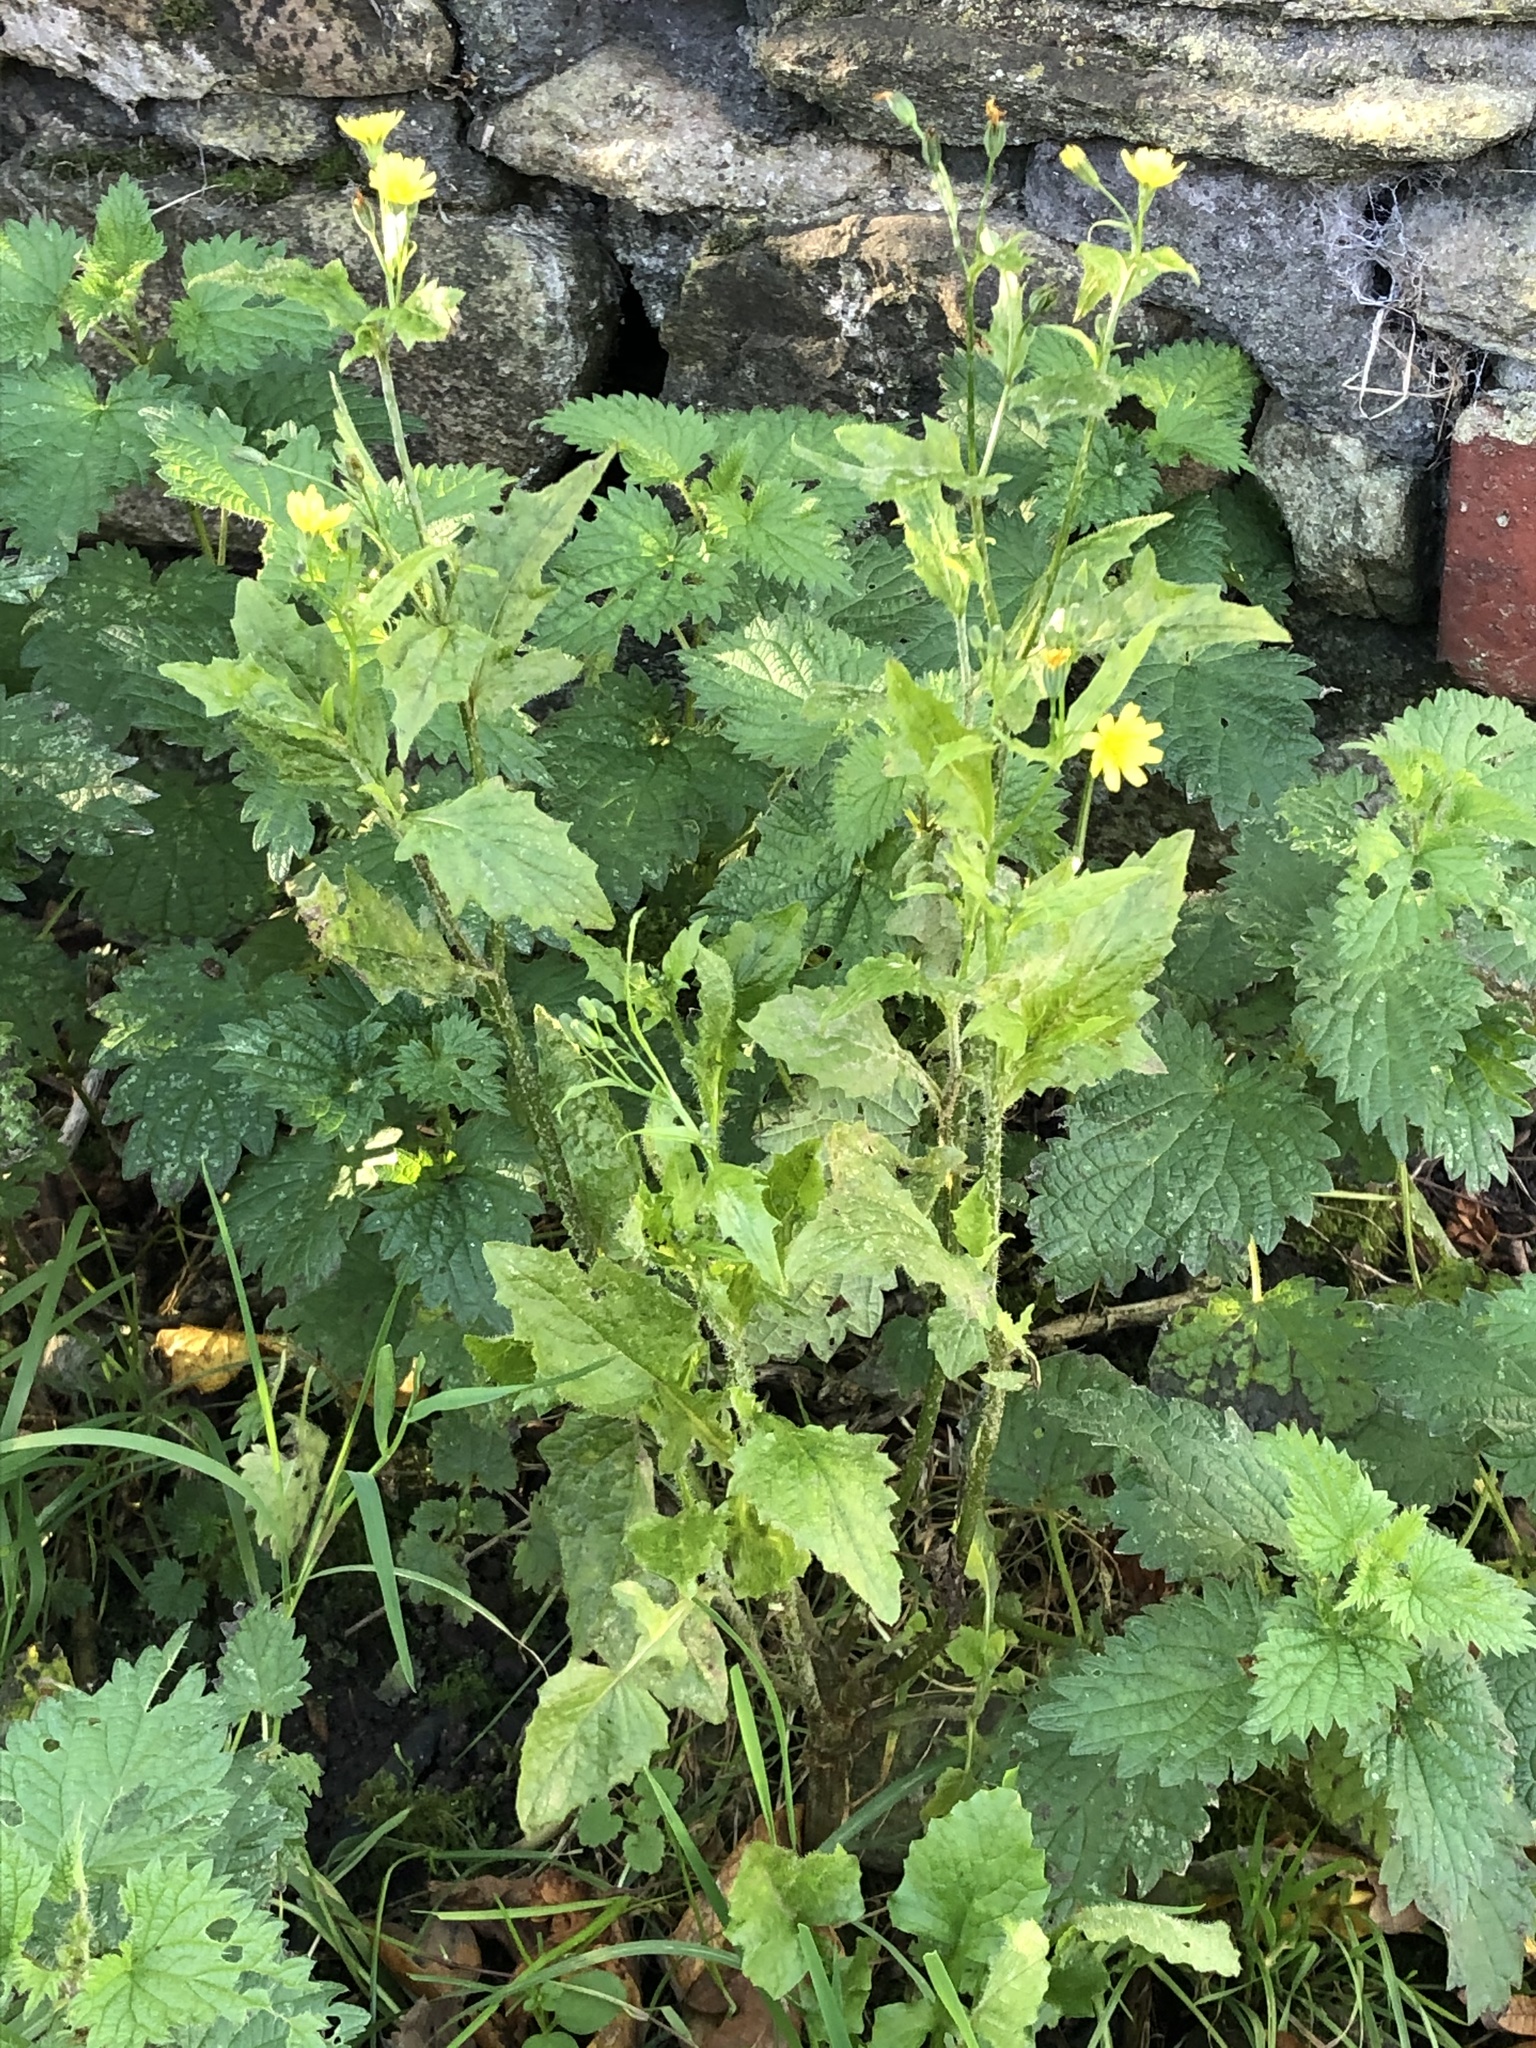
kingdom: Plantae
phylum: Tracheophyta
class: Magnoliopsida
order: Asterales
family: Asteraceae
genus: Lapsana
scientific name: Lapsana communis
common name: Nipplewort
